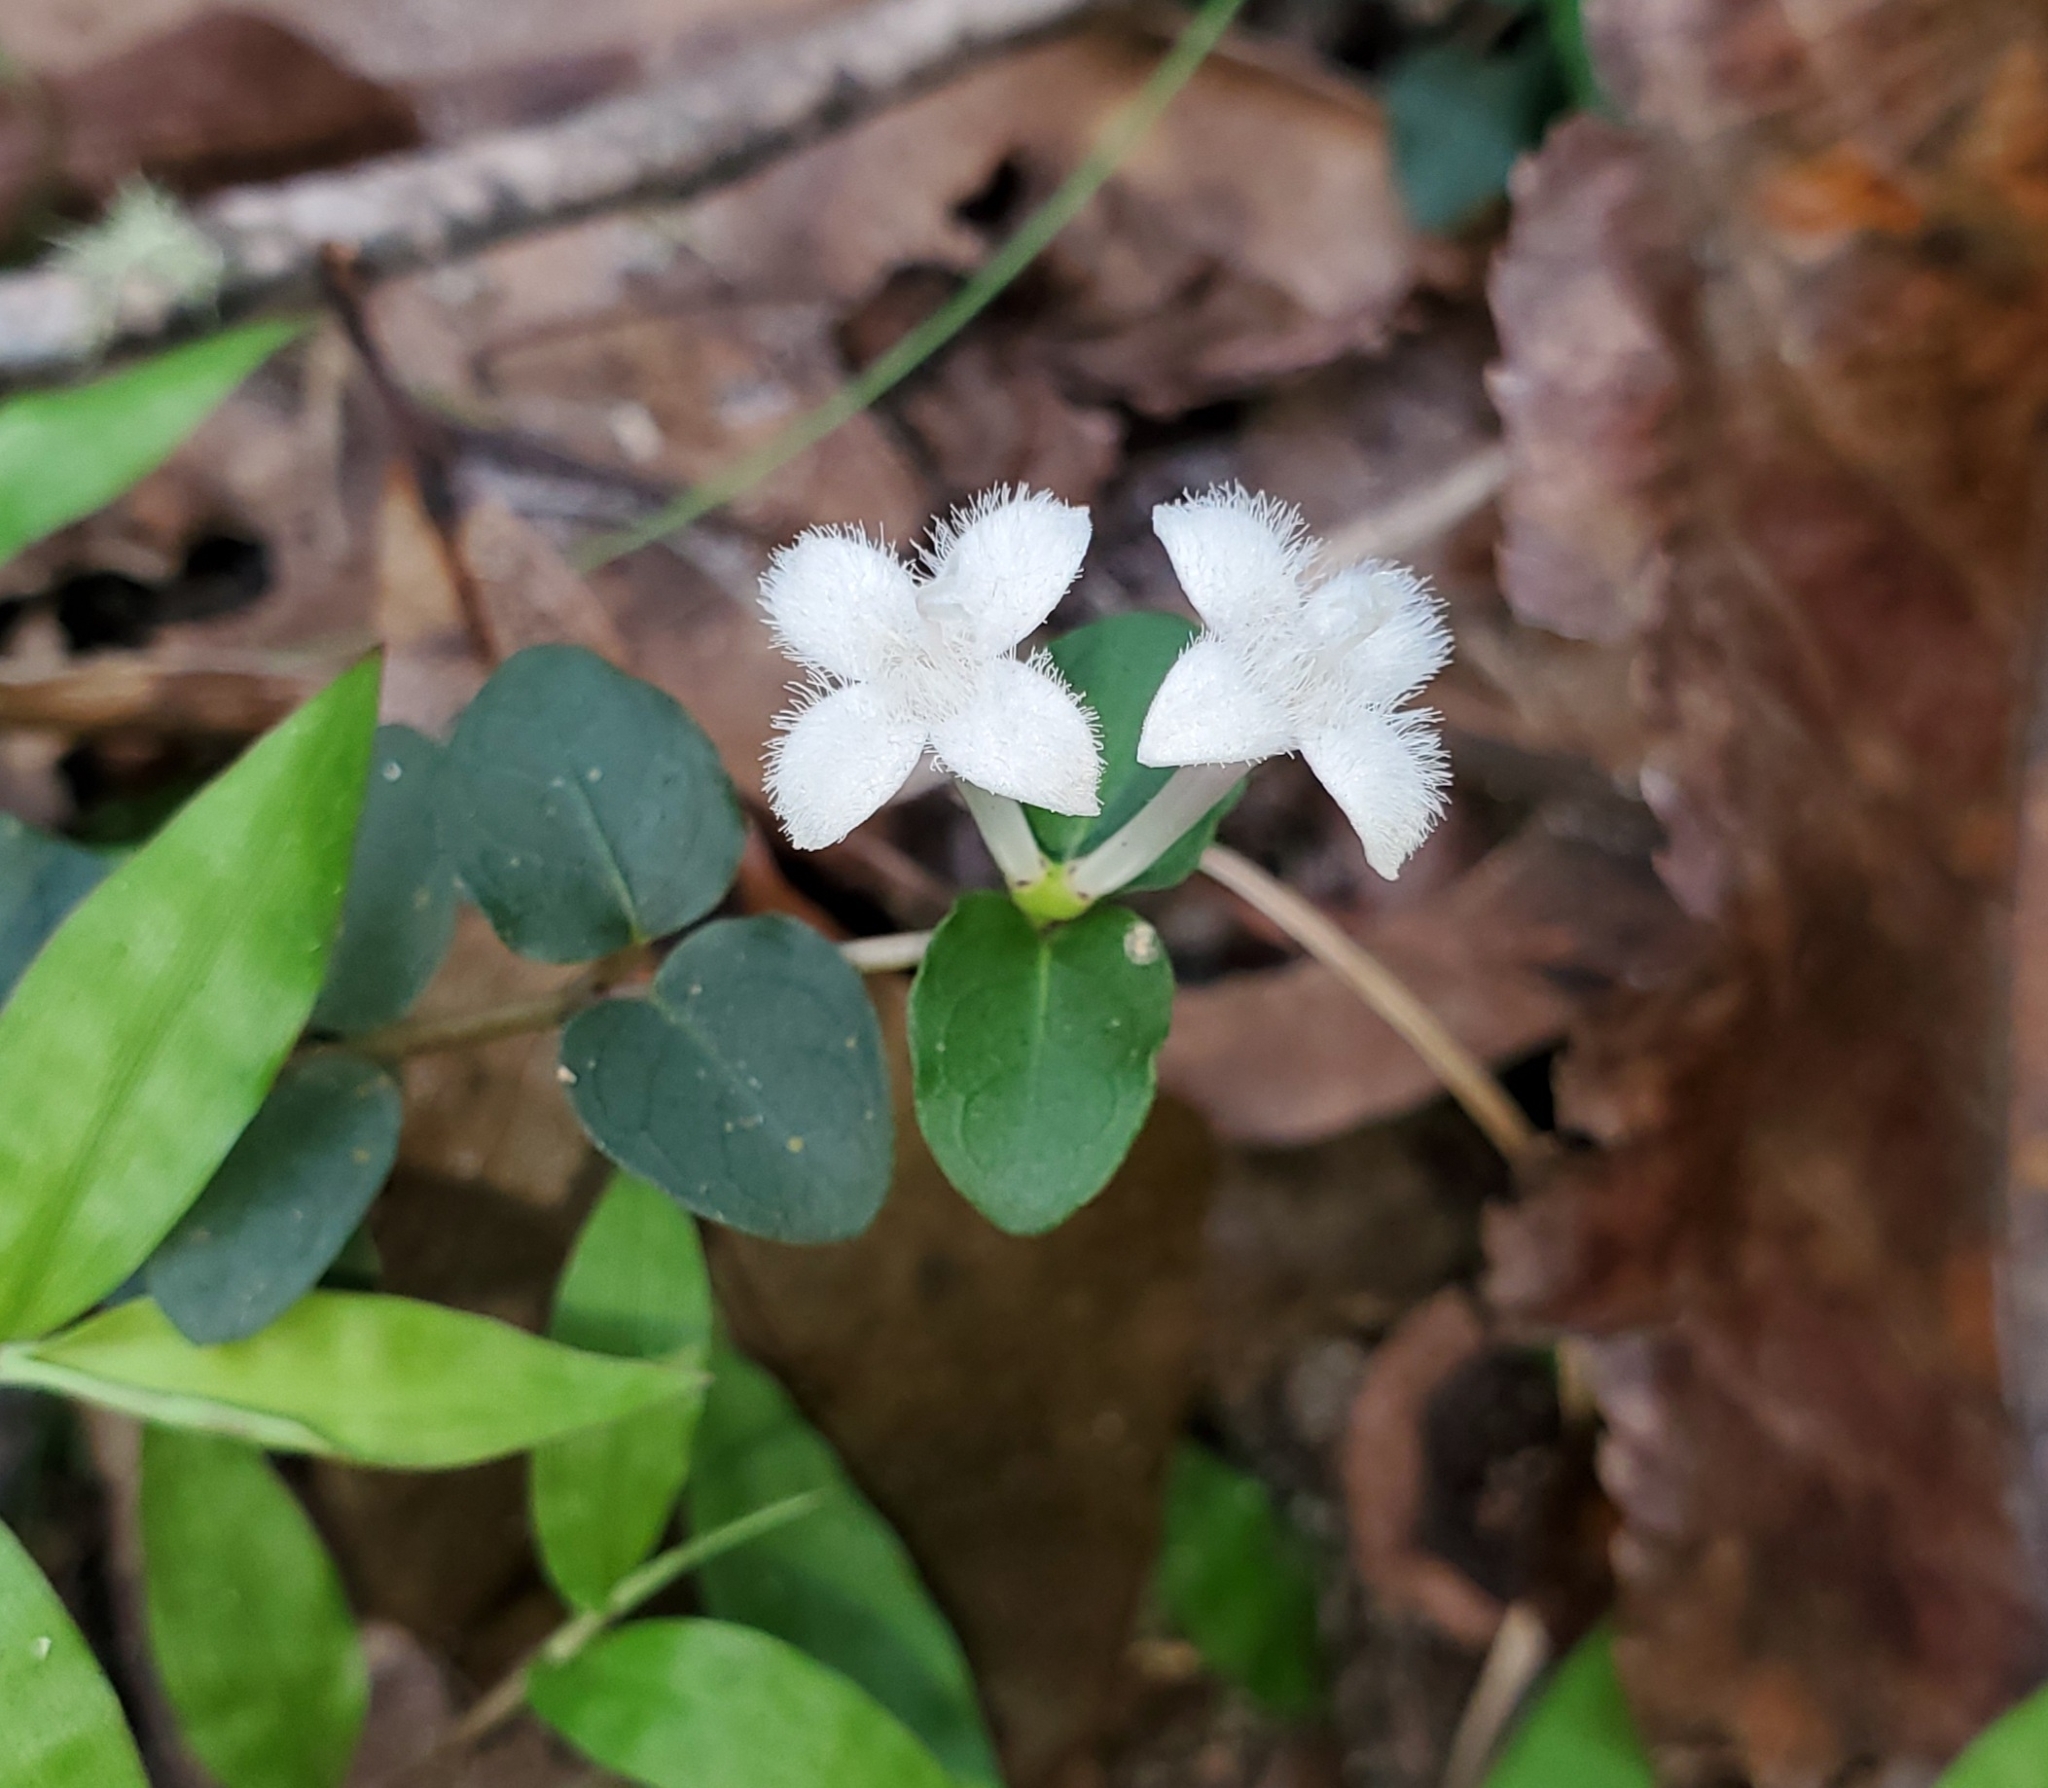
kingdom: Plantae
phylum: Tracheophyta
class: Magnoliopsida
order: Gentianales
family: Rubiaceae
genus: Mitchella
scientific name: Mitchella repens
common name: Partridge-berry
